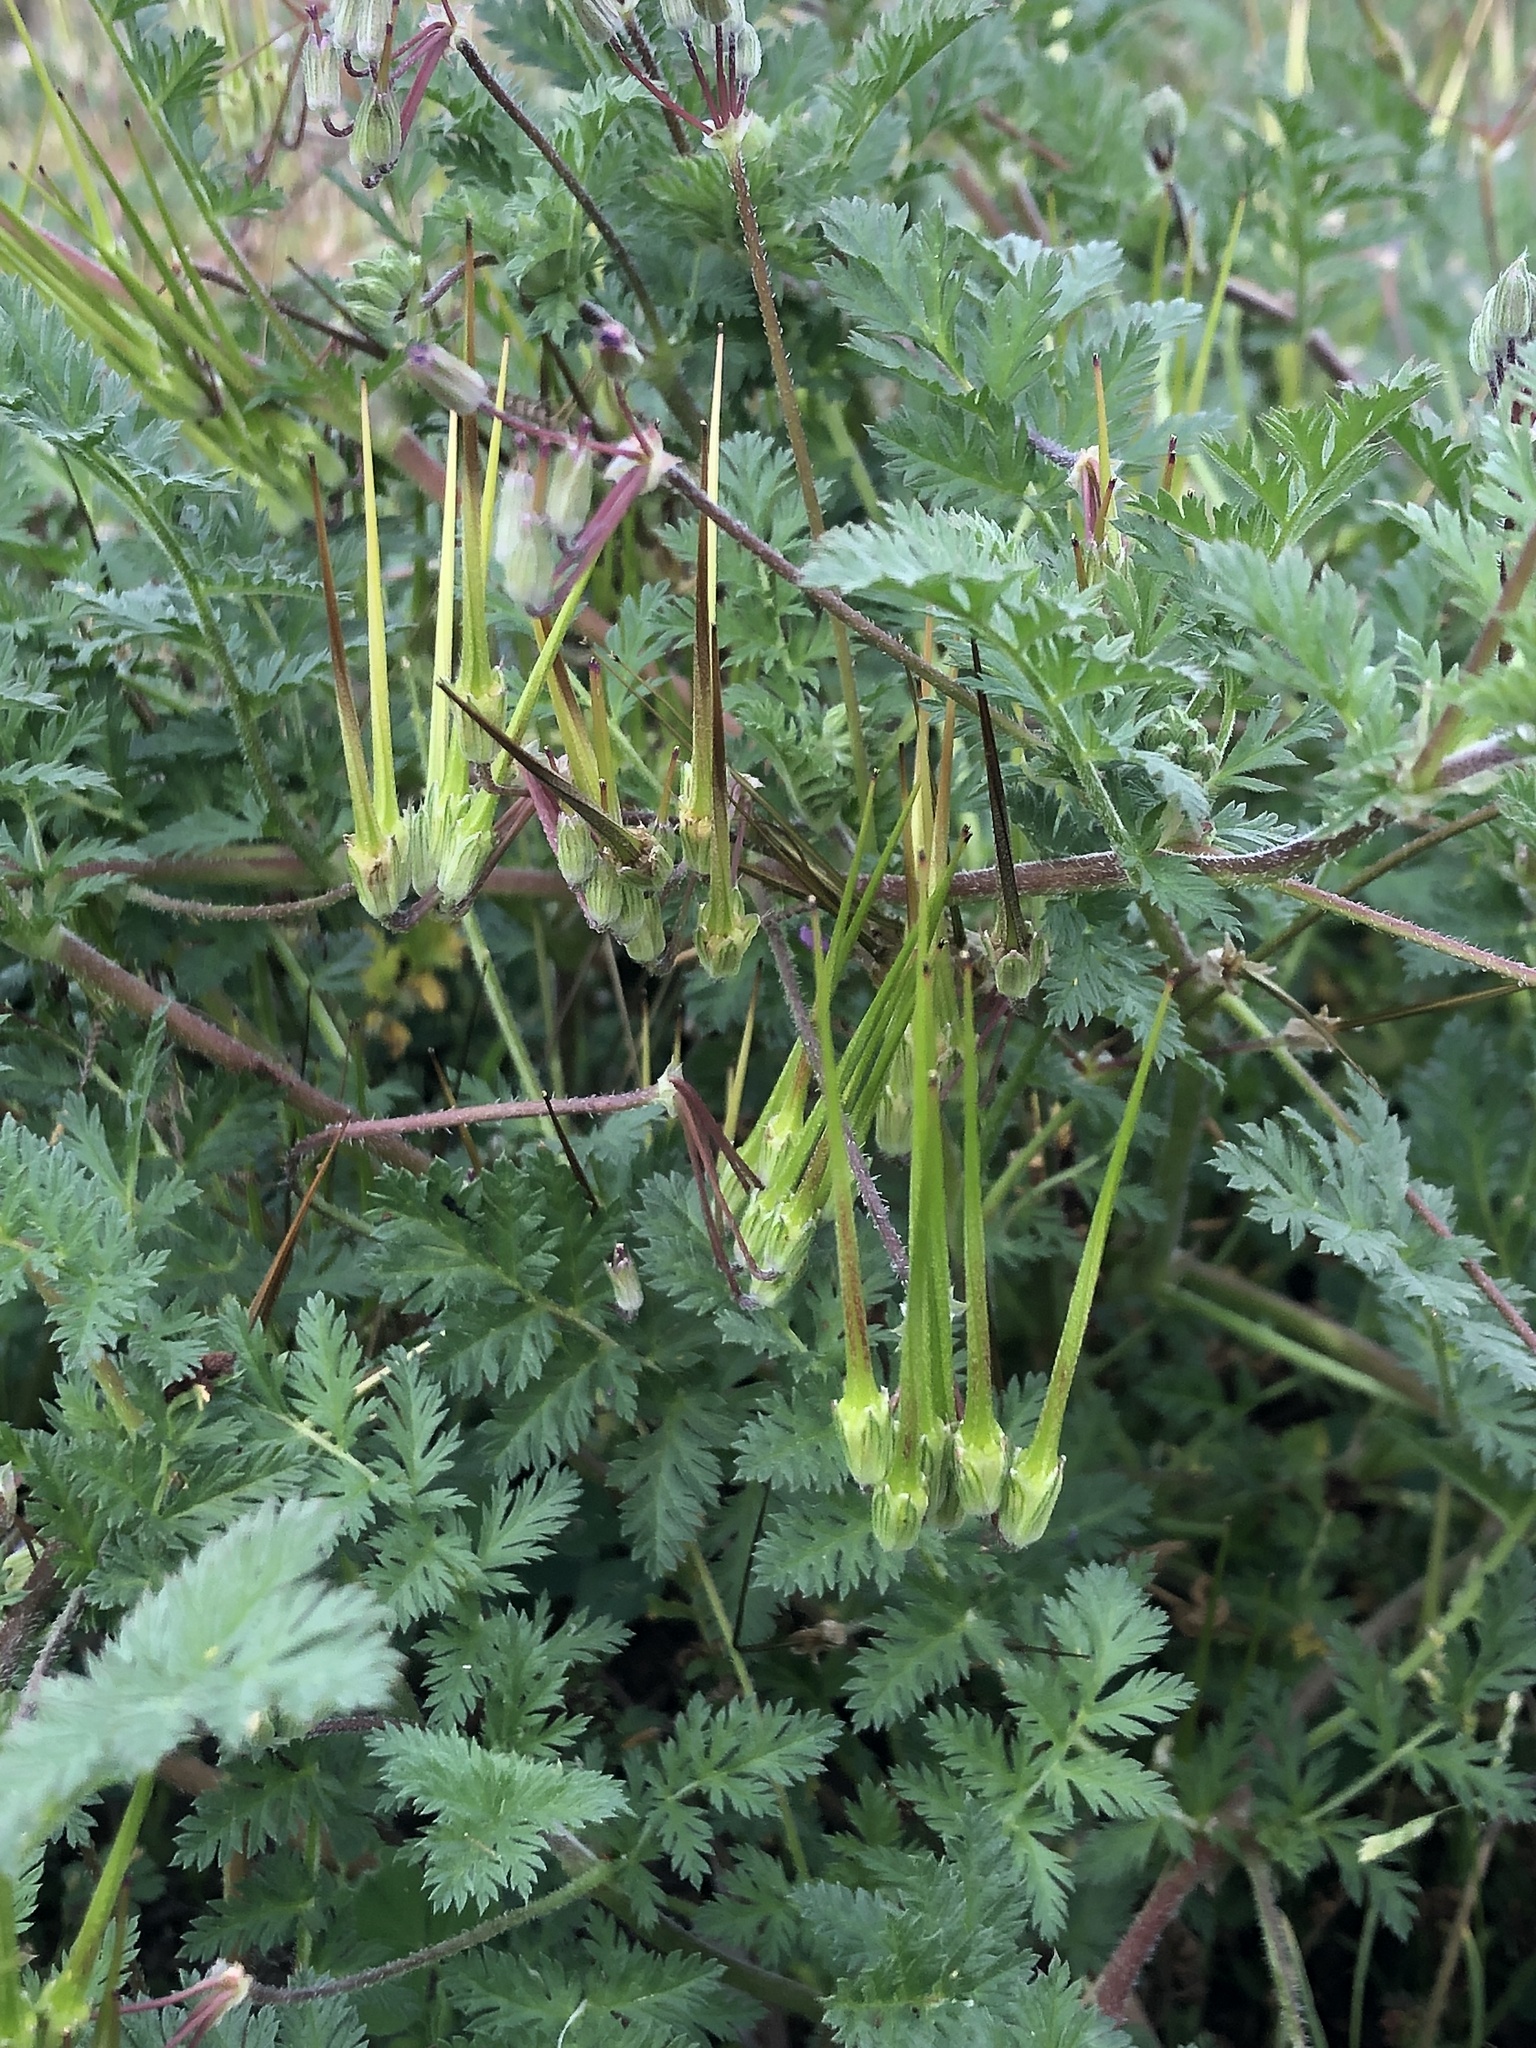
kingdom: Plantae
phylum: Tracheophyta
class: Magnoliopsida
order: Geraniales
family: Geraniaceae
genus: Erodium
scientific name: Erodium cicutarium
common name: Common stork's-bill
